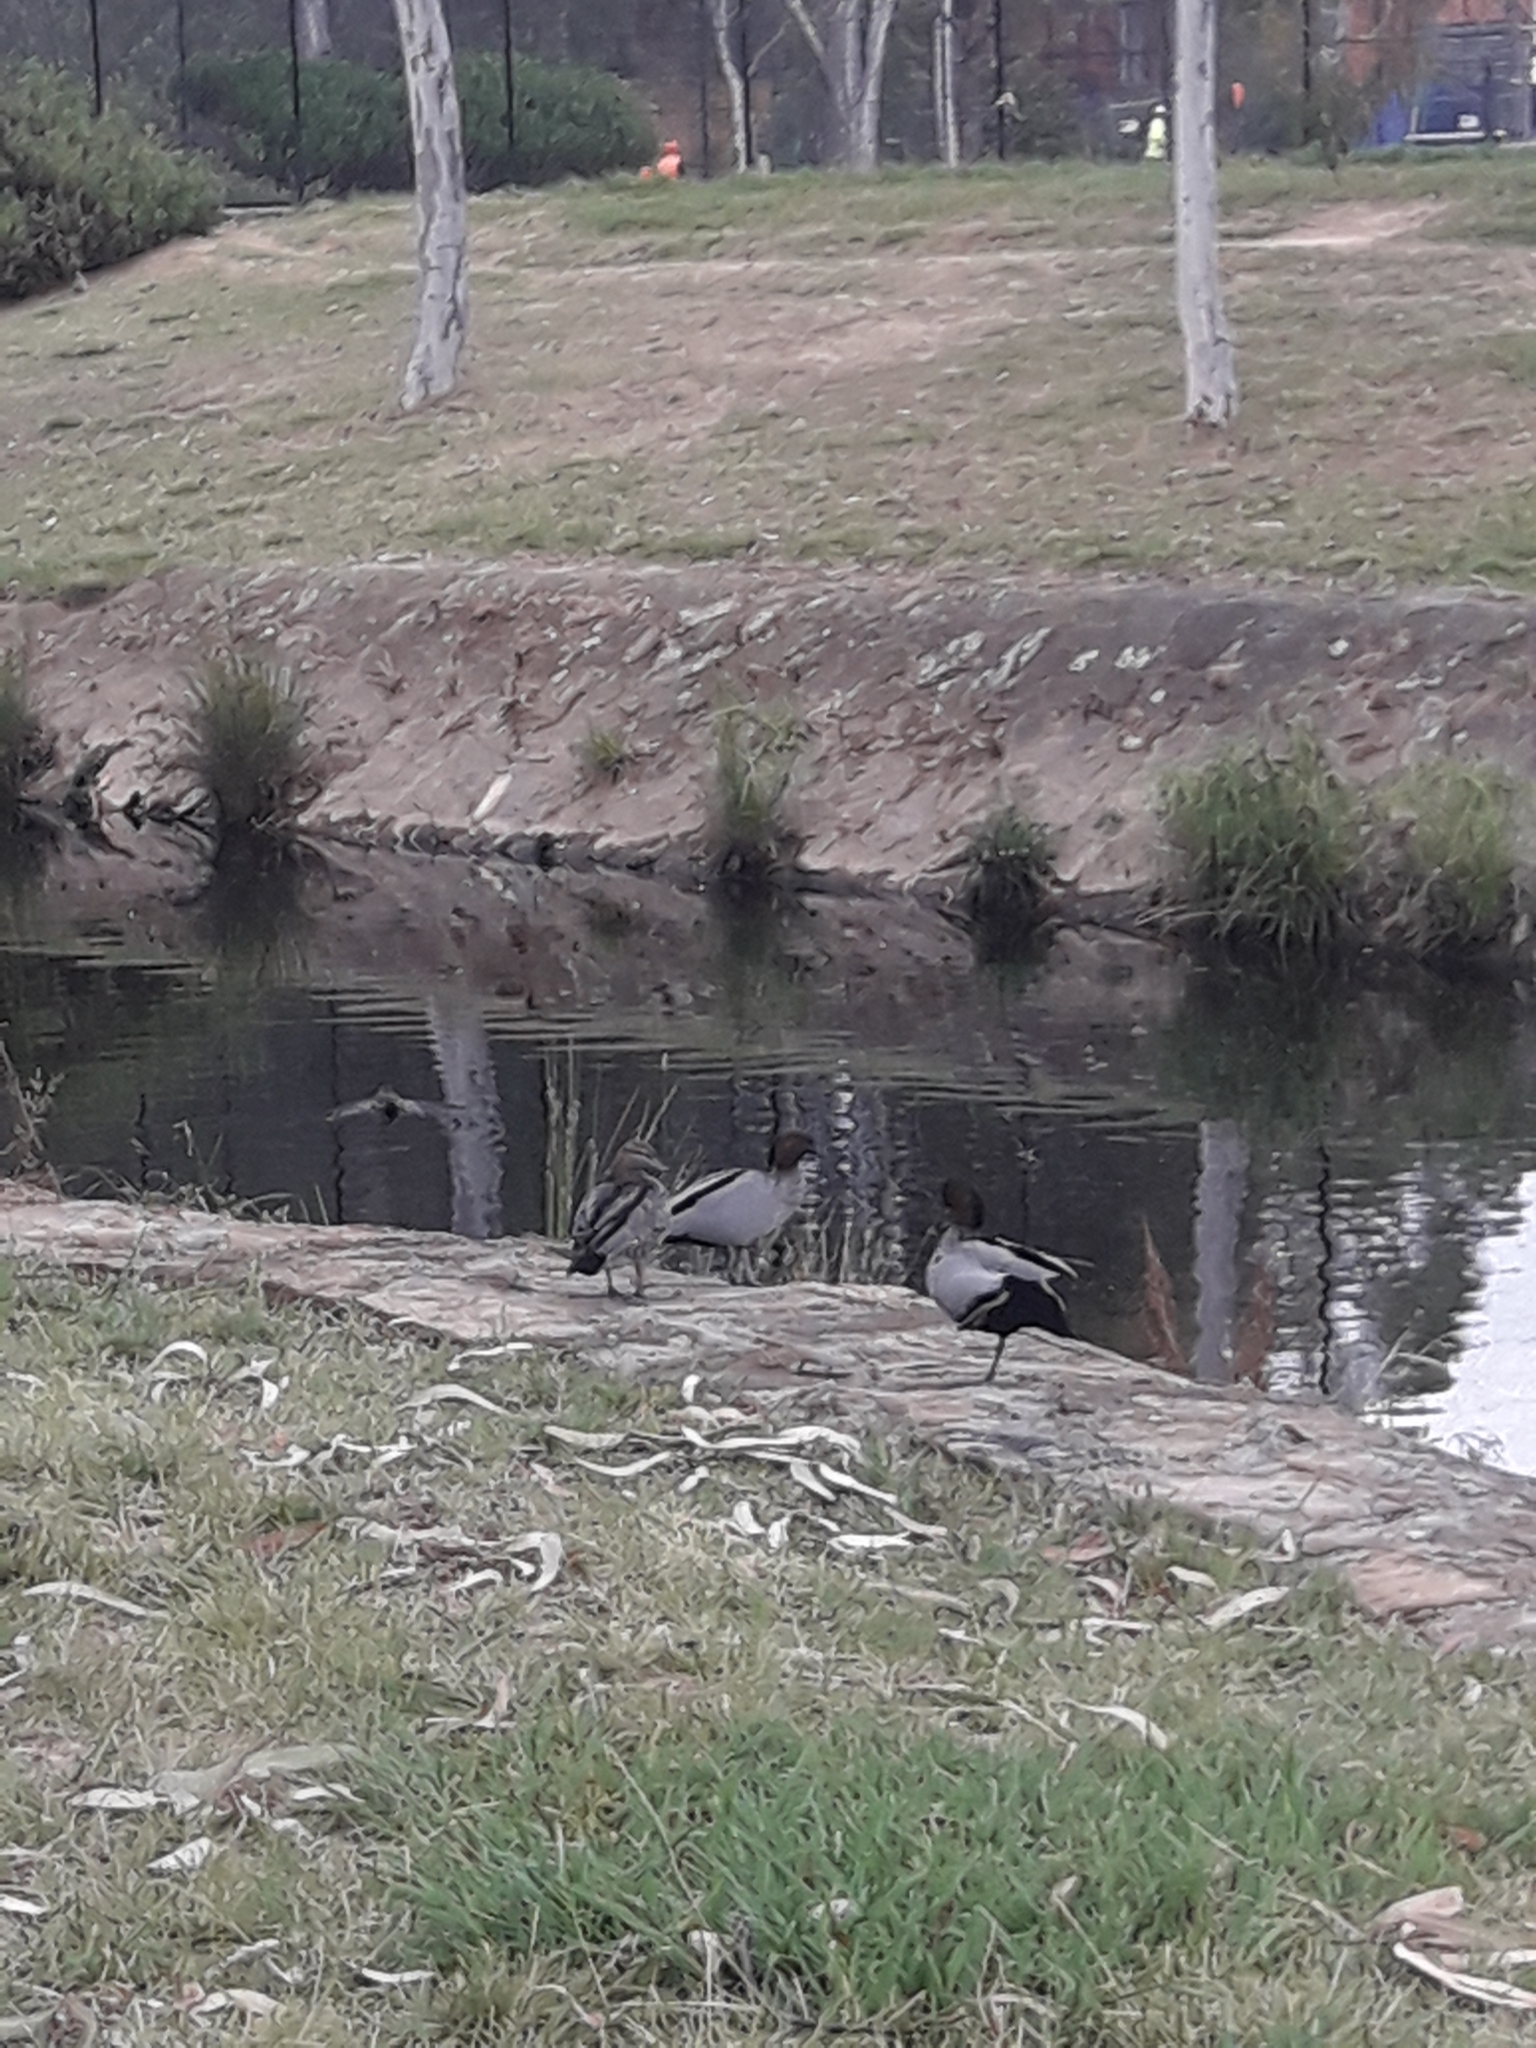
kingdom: Animalia
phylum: Chordata
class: Aves
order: Anseriformes
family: Anatidae
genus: Chenonetta
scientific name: Chenonetta jubata
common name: Maned duck
